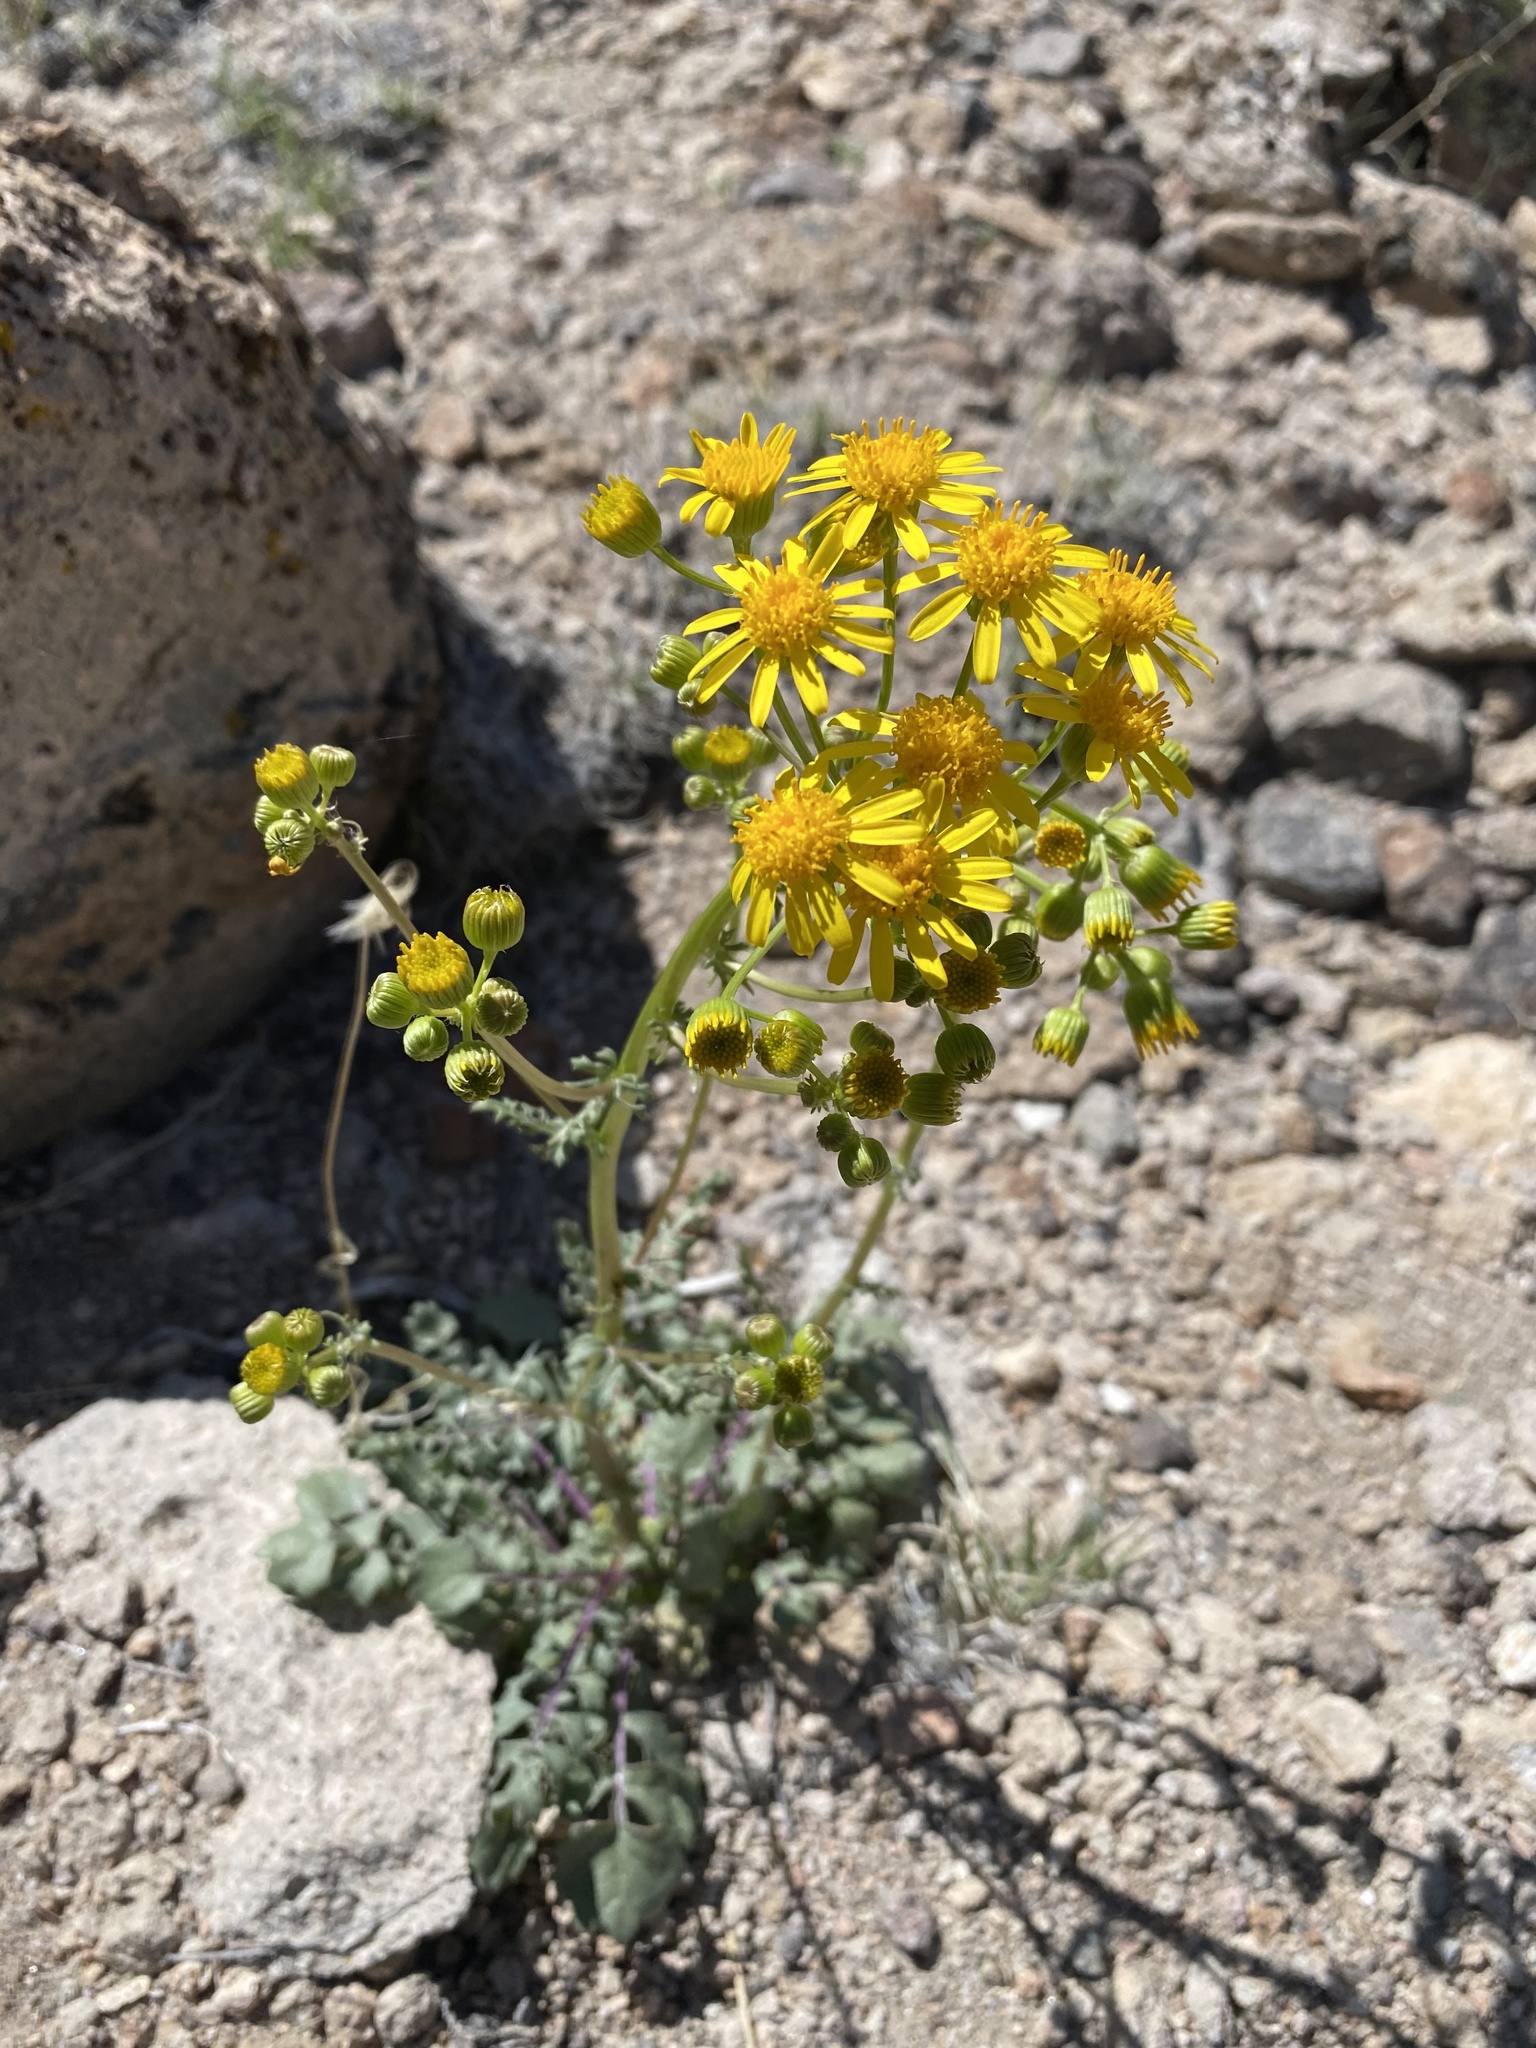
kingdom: Plantae
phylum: Tracheophyta
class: Magnoliopsida
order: Asterales
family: Asteraceae
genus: Packera
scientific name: Packera multilobata
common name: Lobe-leaf groundsel
